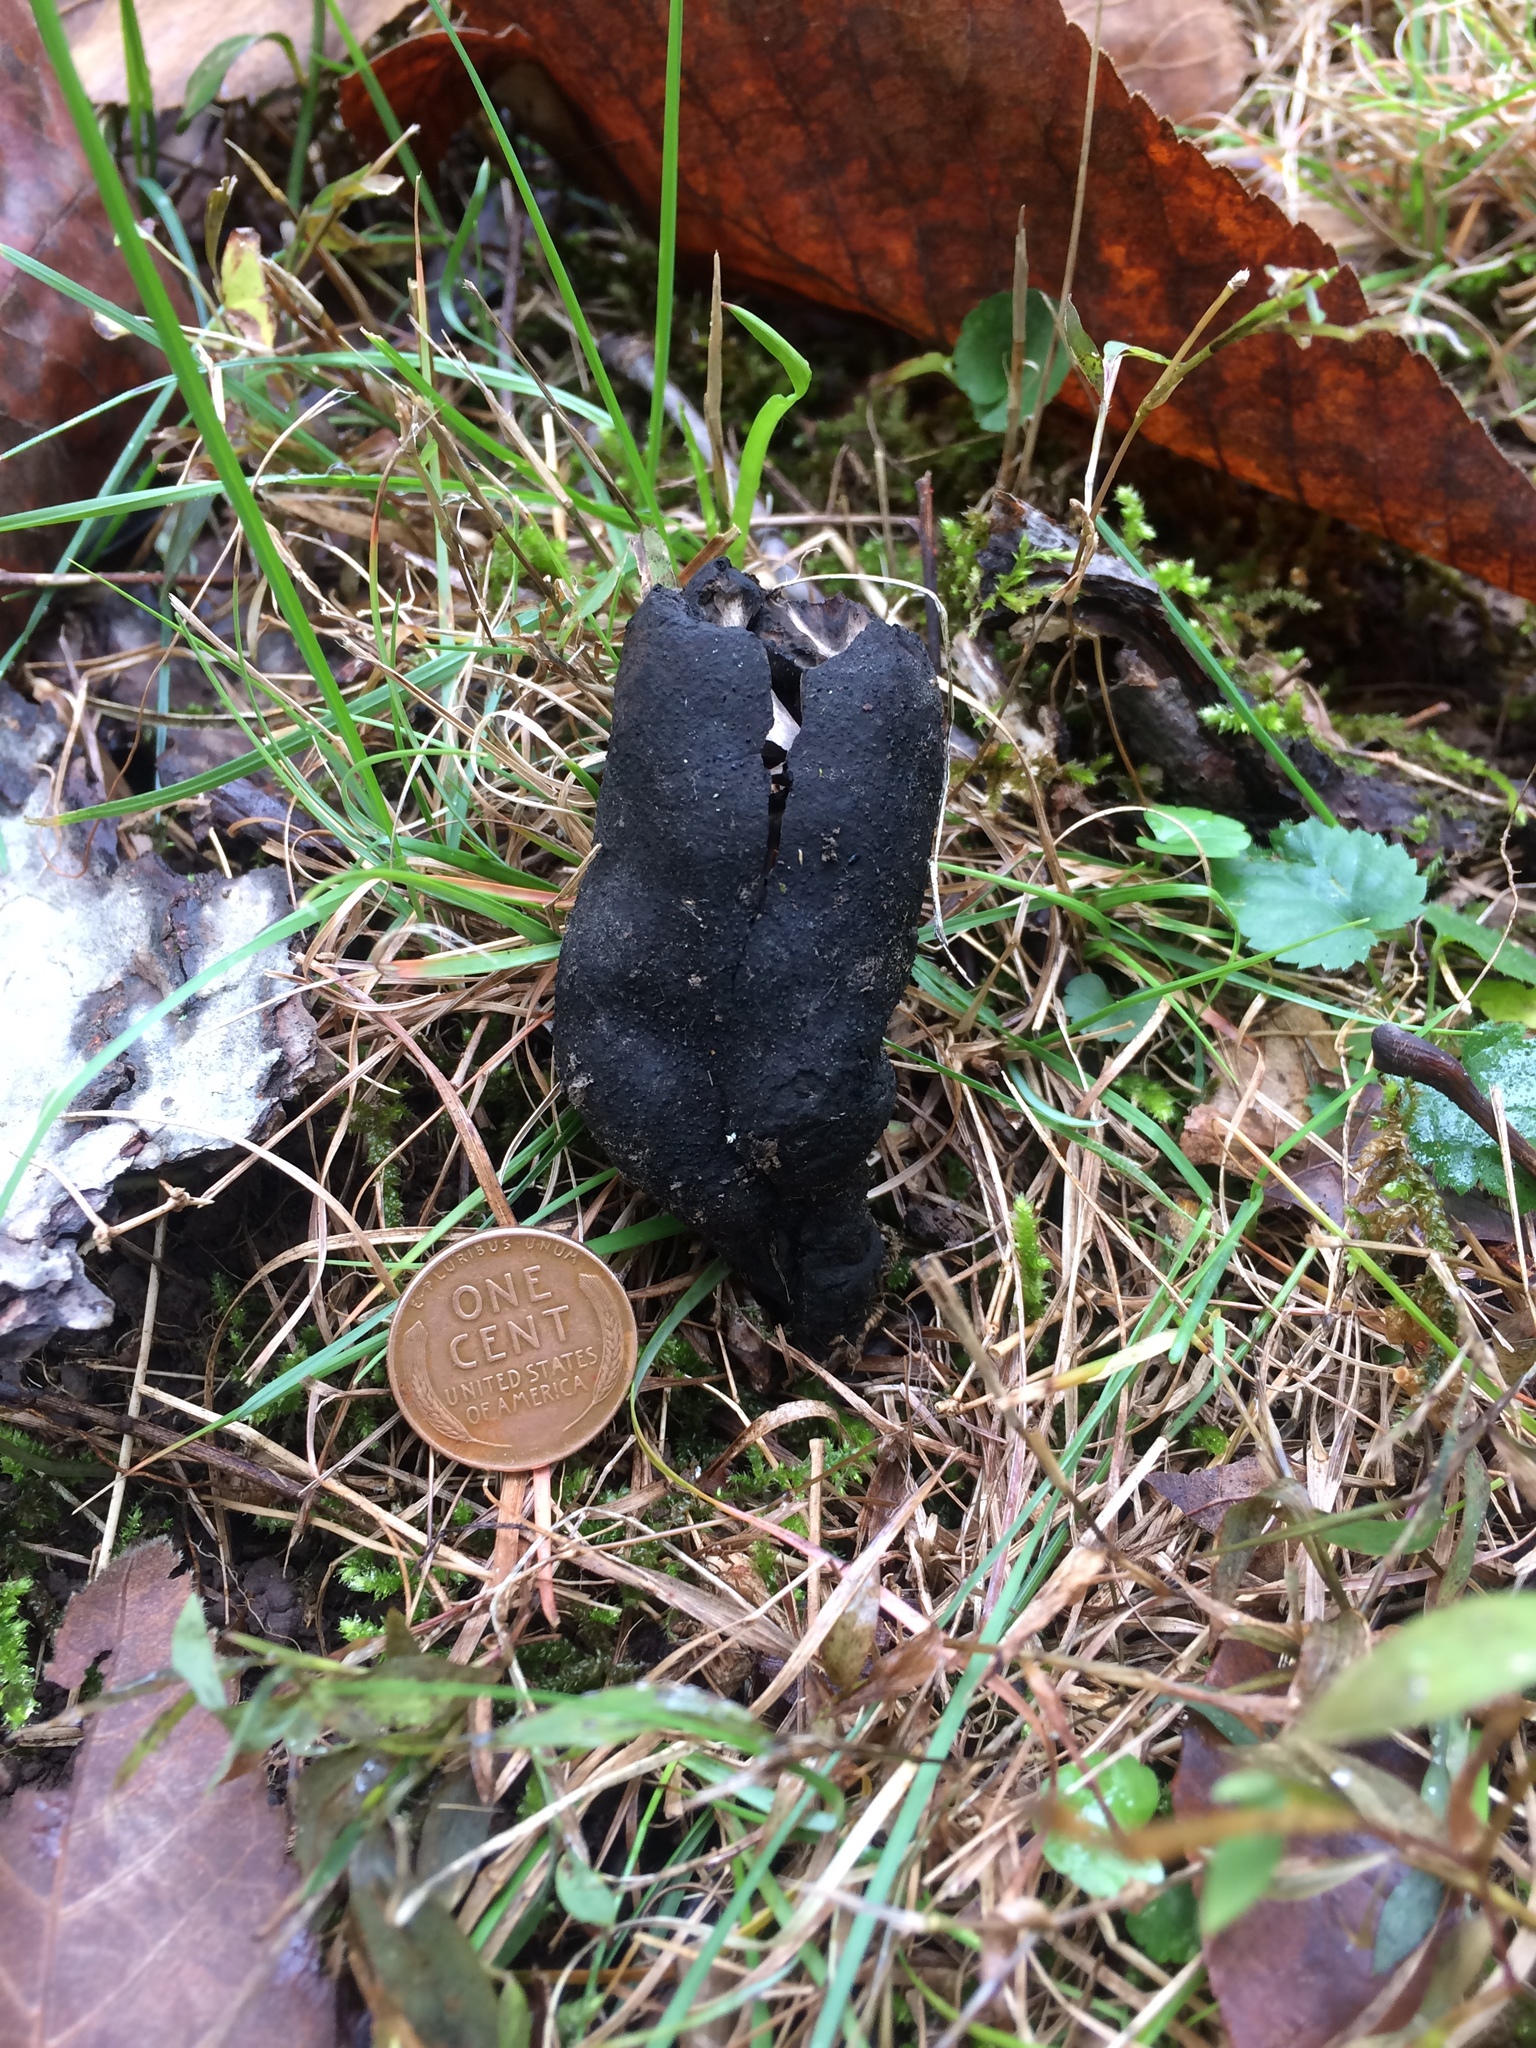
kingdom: Fungi
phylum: Ascomycota
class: Sordariomycetes
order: Xylariales
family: Xylariaceae
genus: Xylaria
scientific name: Xylaria polymorpha
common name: Dead man's fingers
